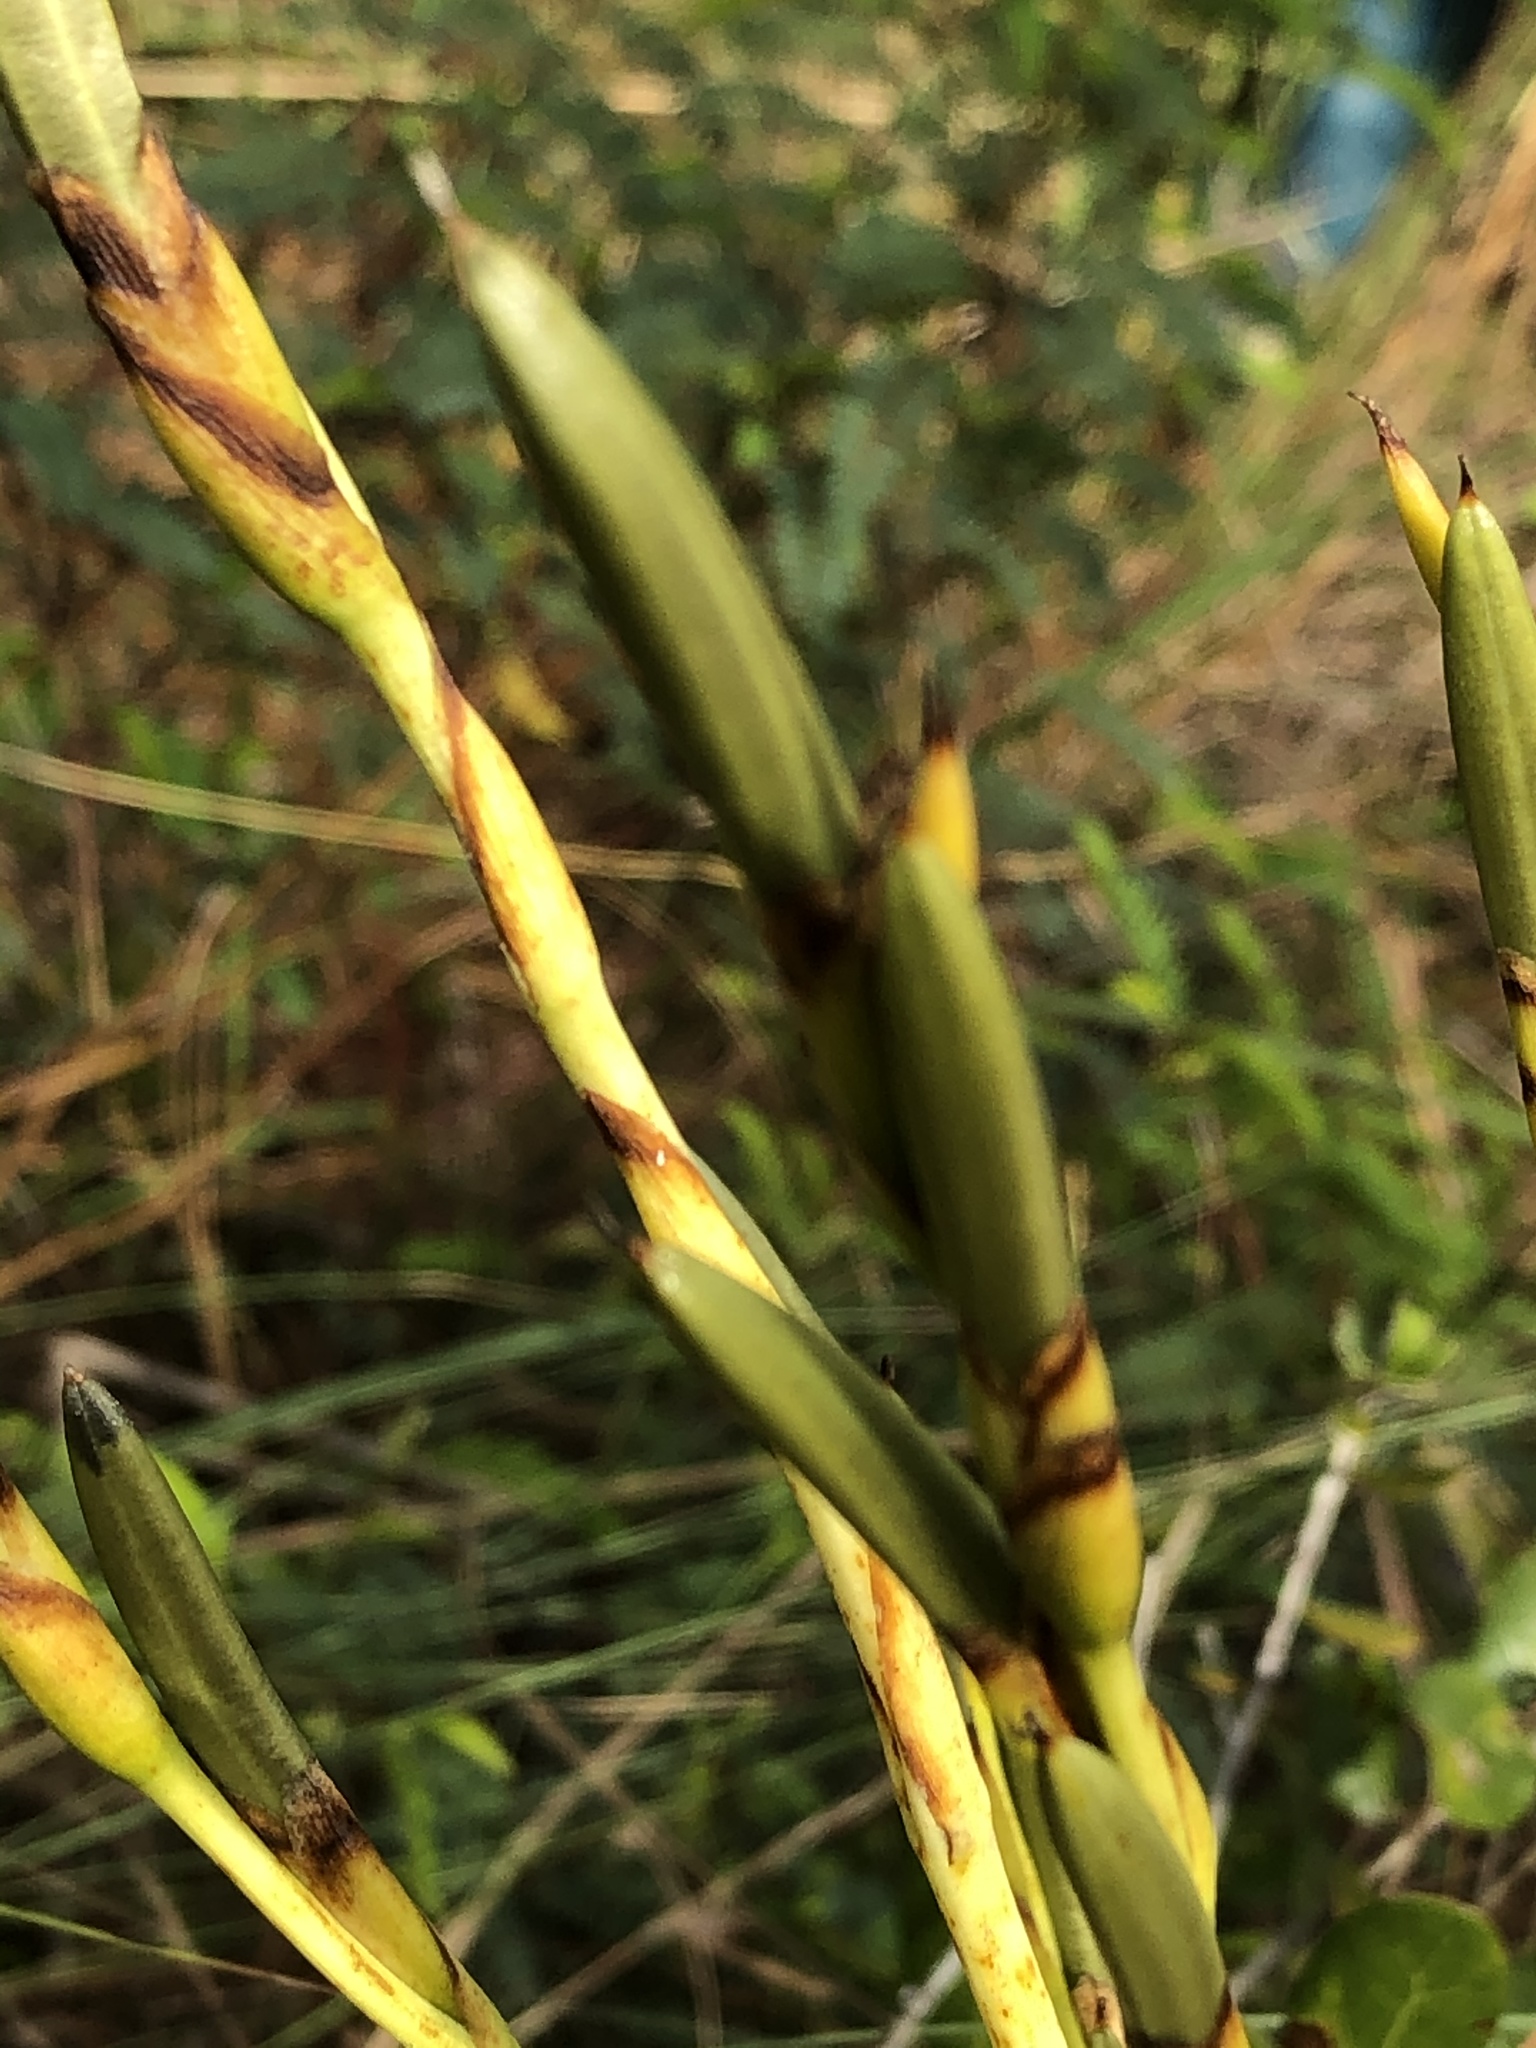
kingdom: Plantae
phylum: Tracheophyta
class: Liliopsida
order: Poales
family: Bromeliaceae
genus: Tillandsia
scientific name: Tillandsia utriculata
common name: Wild pine
